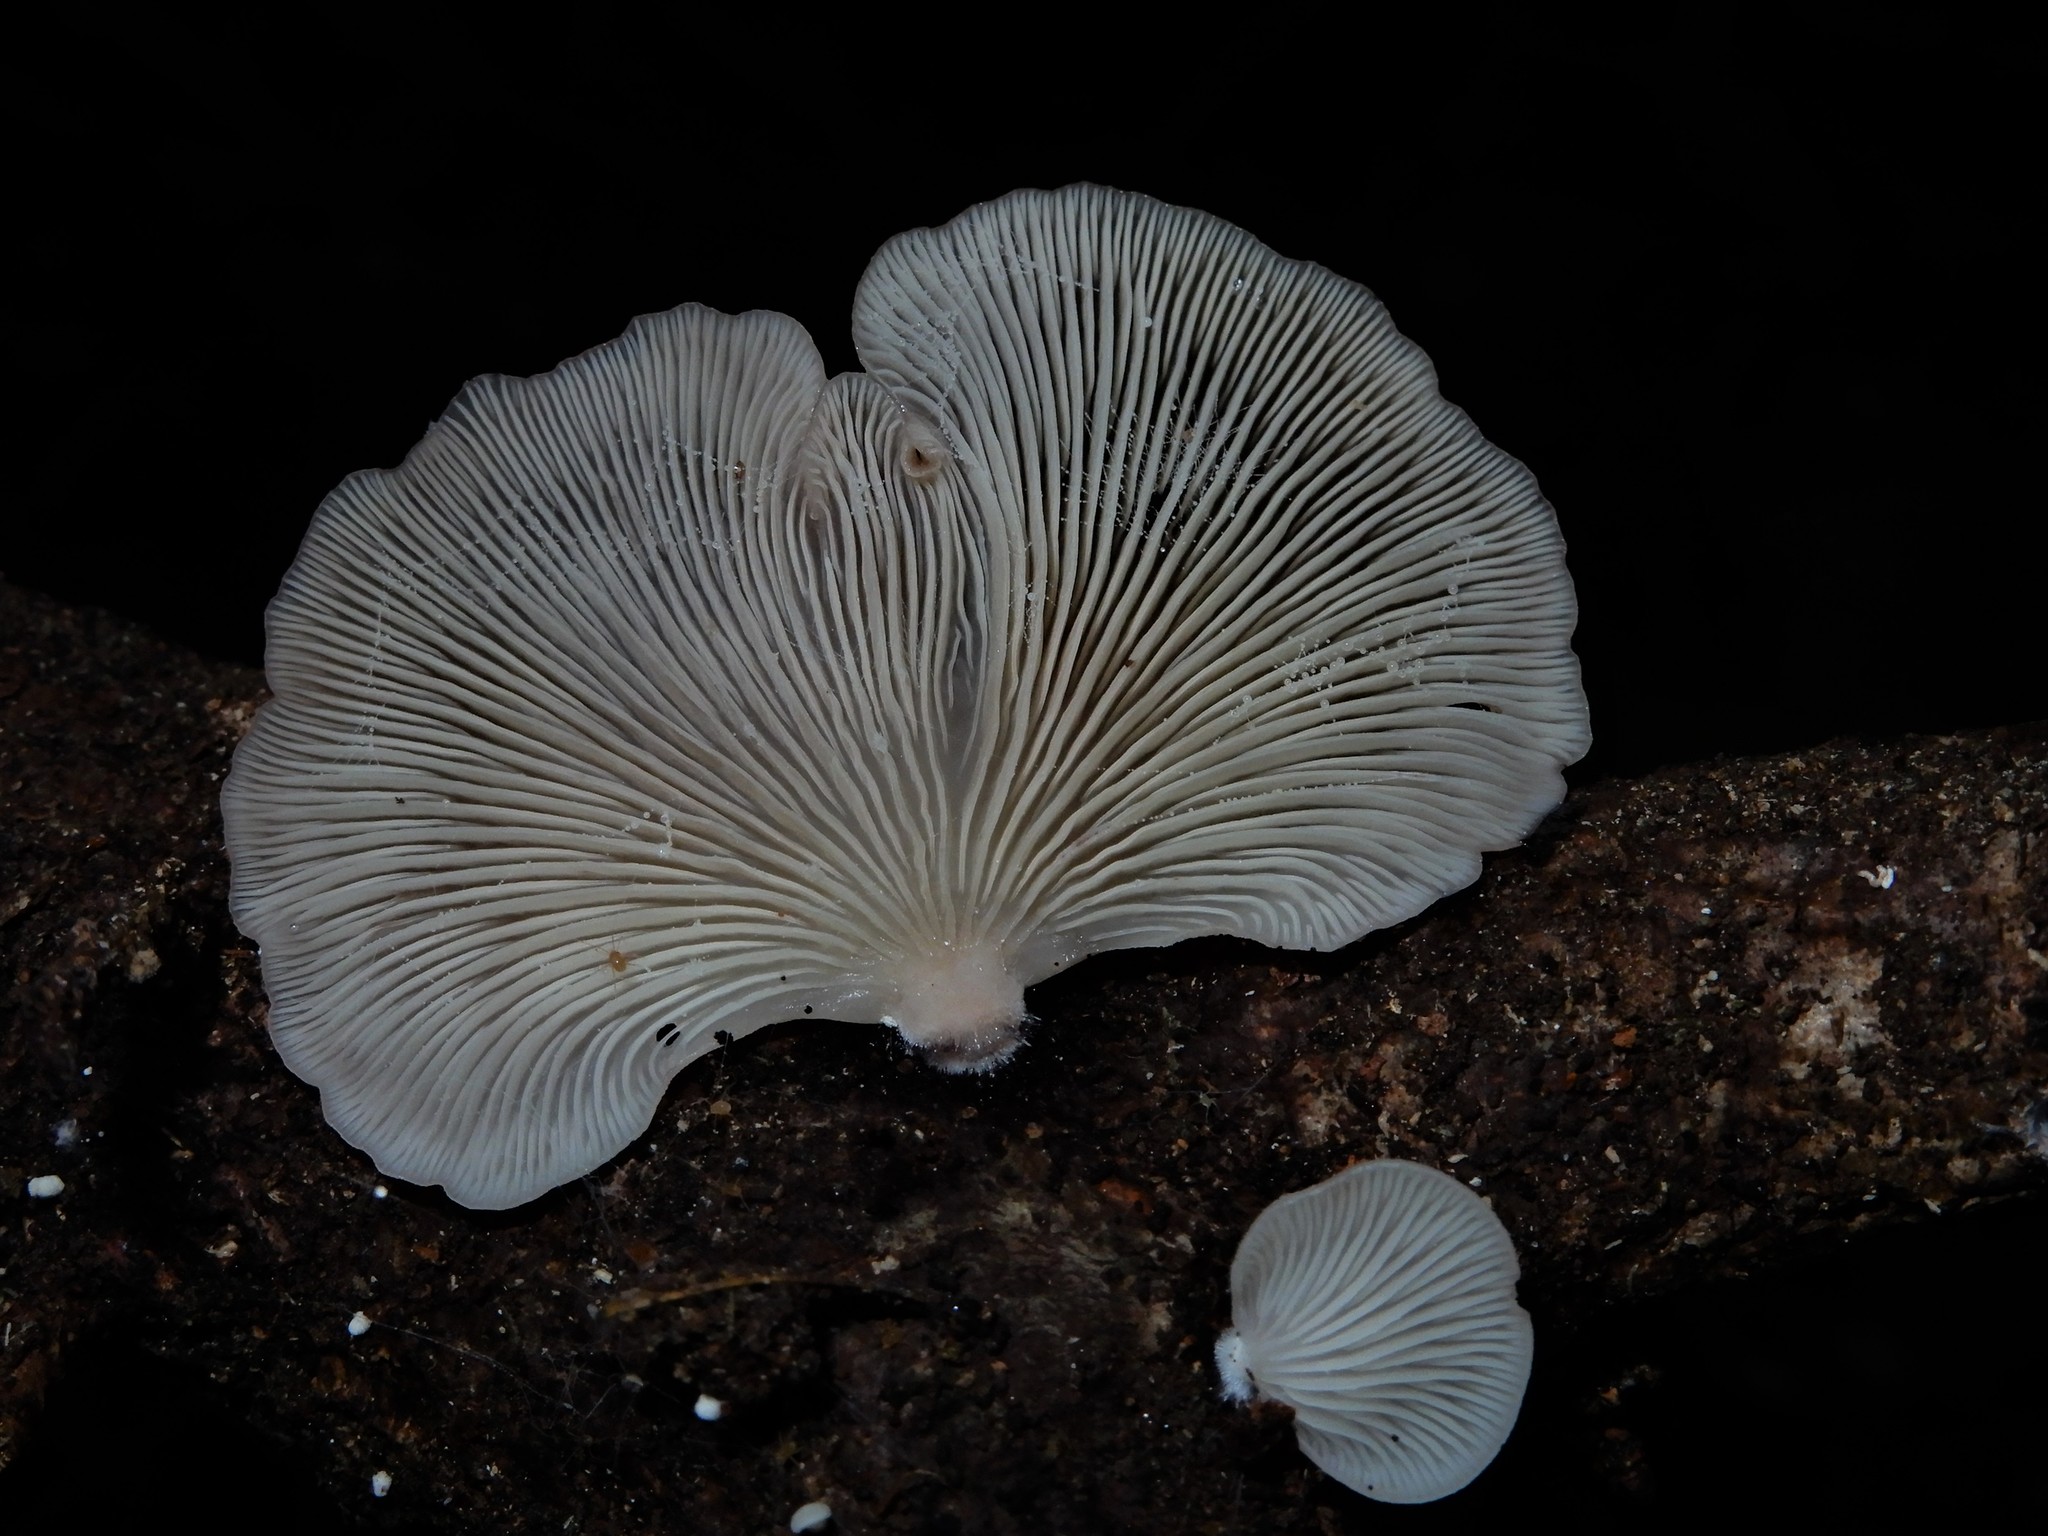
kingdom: Fungi
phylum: Basidiomycota
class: Agaricomycetes
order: Agaricales
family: Mycenaceae
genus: Panellus
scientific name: Panellus longinquus
